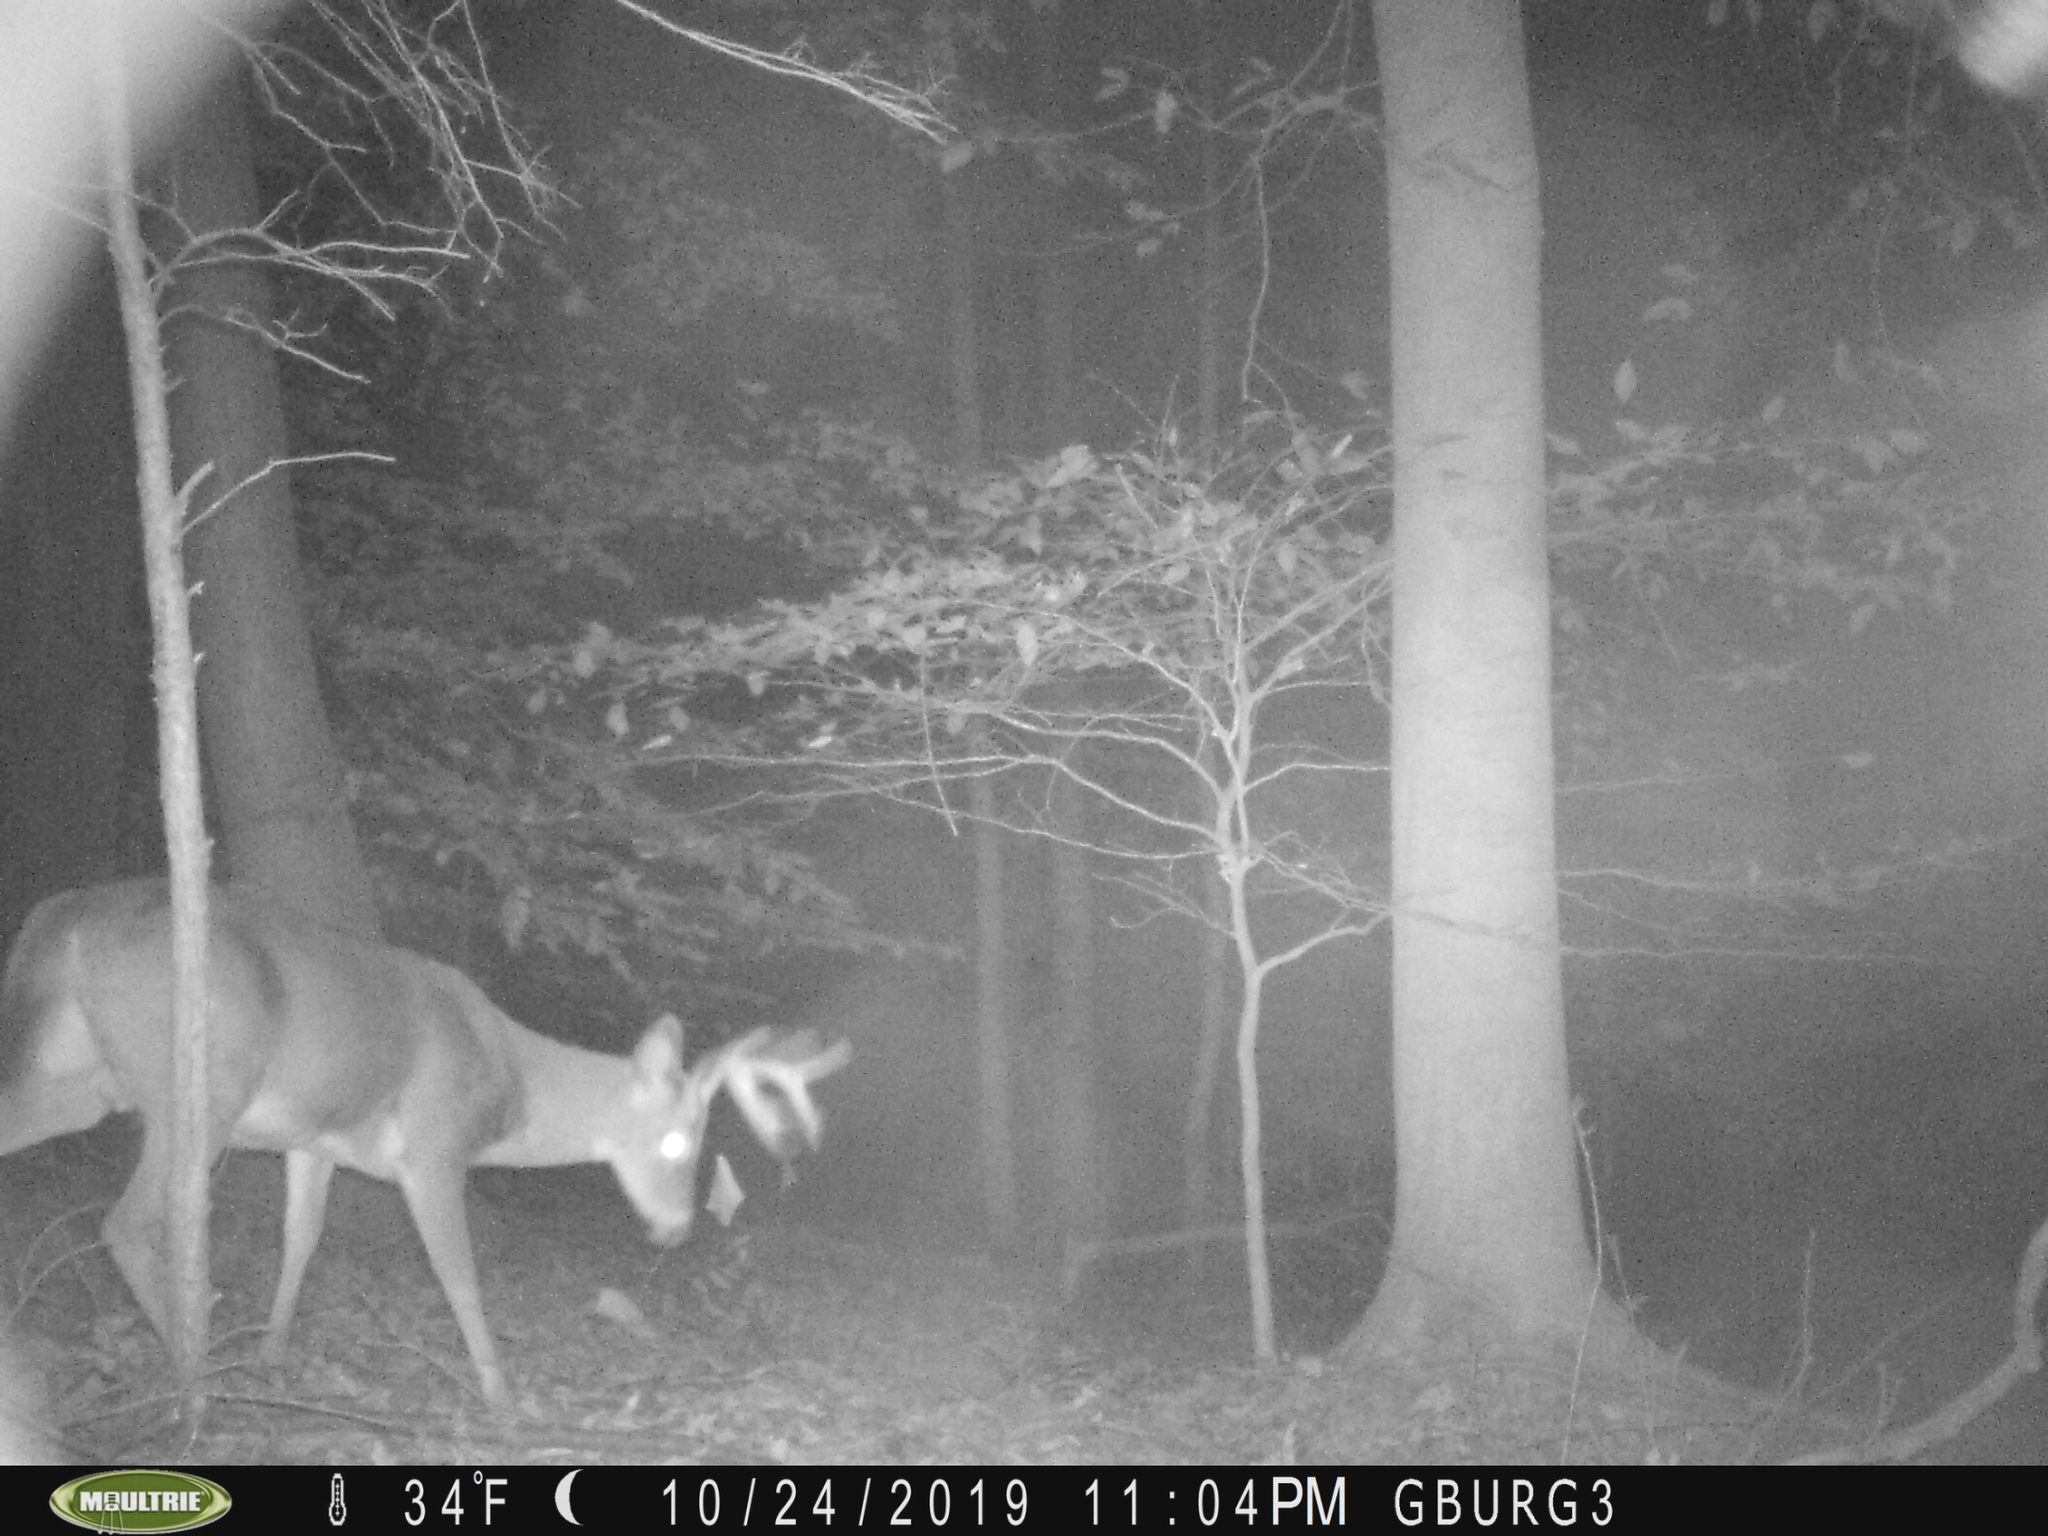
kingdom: Animalia
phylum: Chordata
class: Mammalia
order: Artiodactyla
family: Cervidae
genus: Odocoileus
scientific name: Odocoileus virginianus
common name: White-tailed deer
